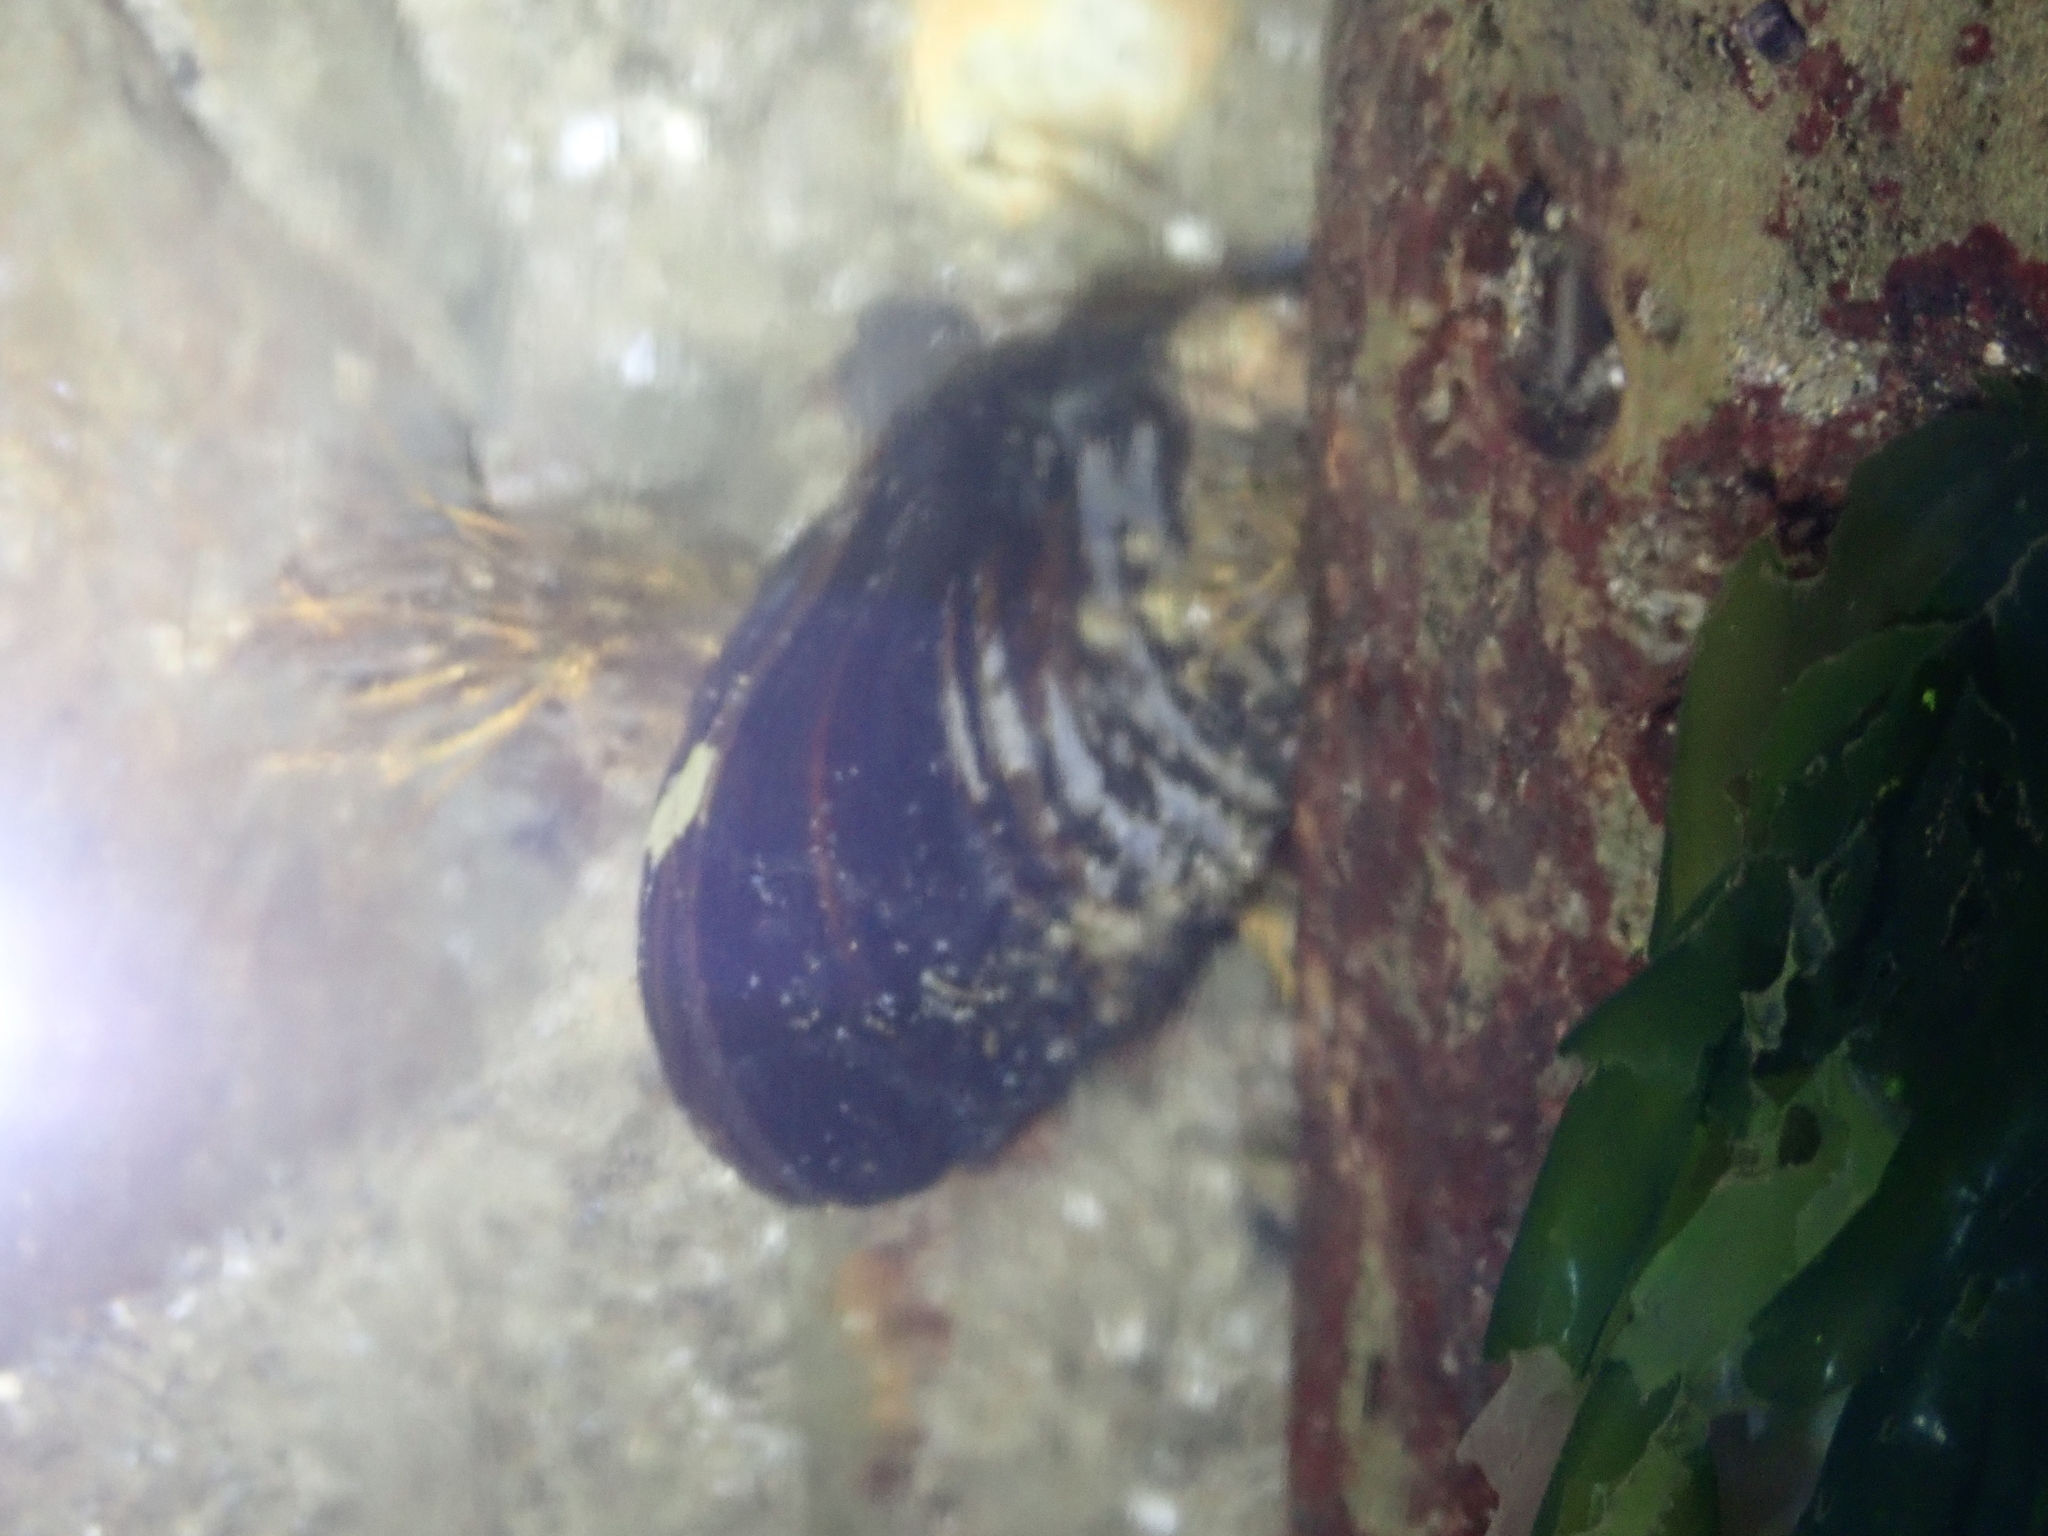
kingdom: Animalia
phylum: Mollusca
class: Bivalvia
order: Mytilida
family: Mytilidae
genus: Mytilus
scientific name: Mytilus californianus
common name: California mussel
